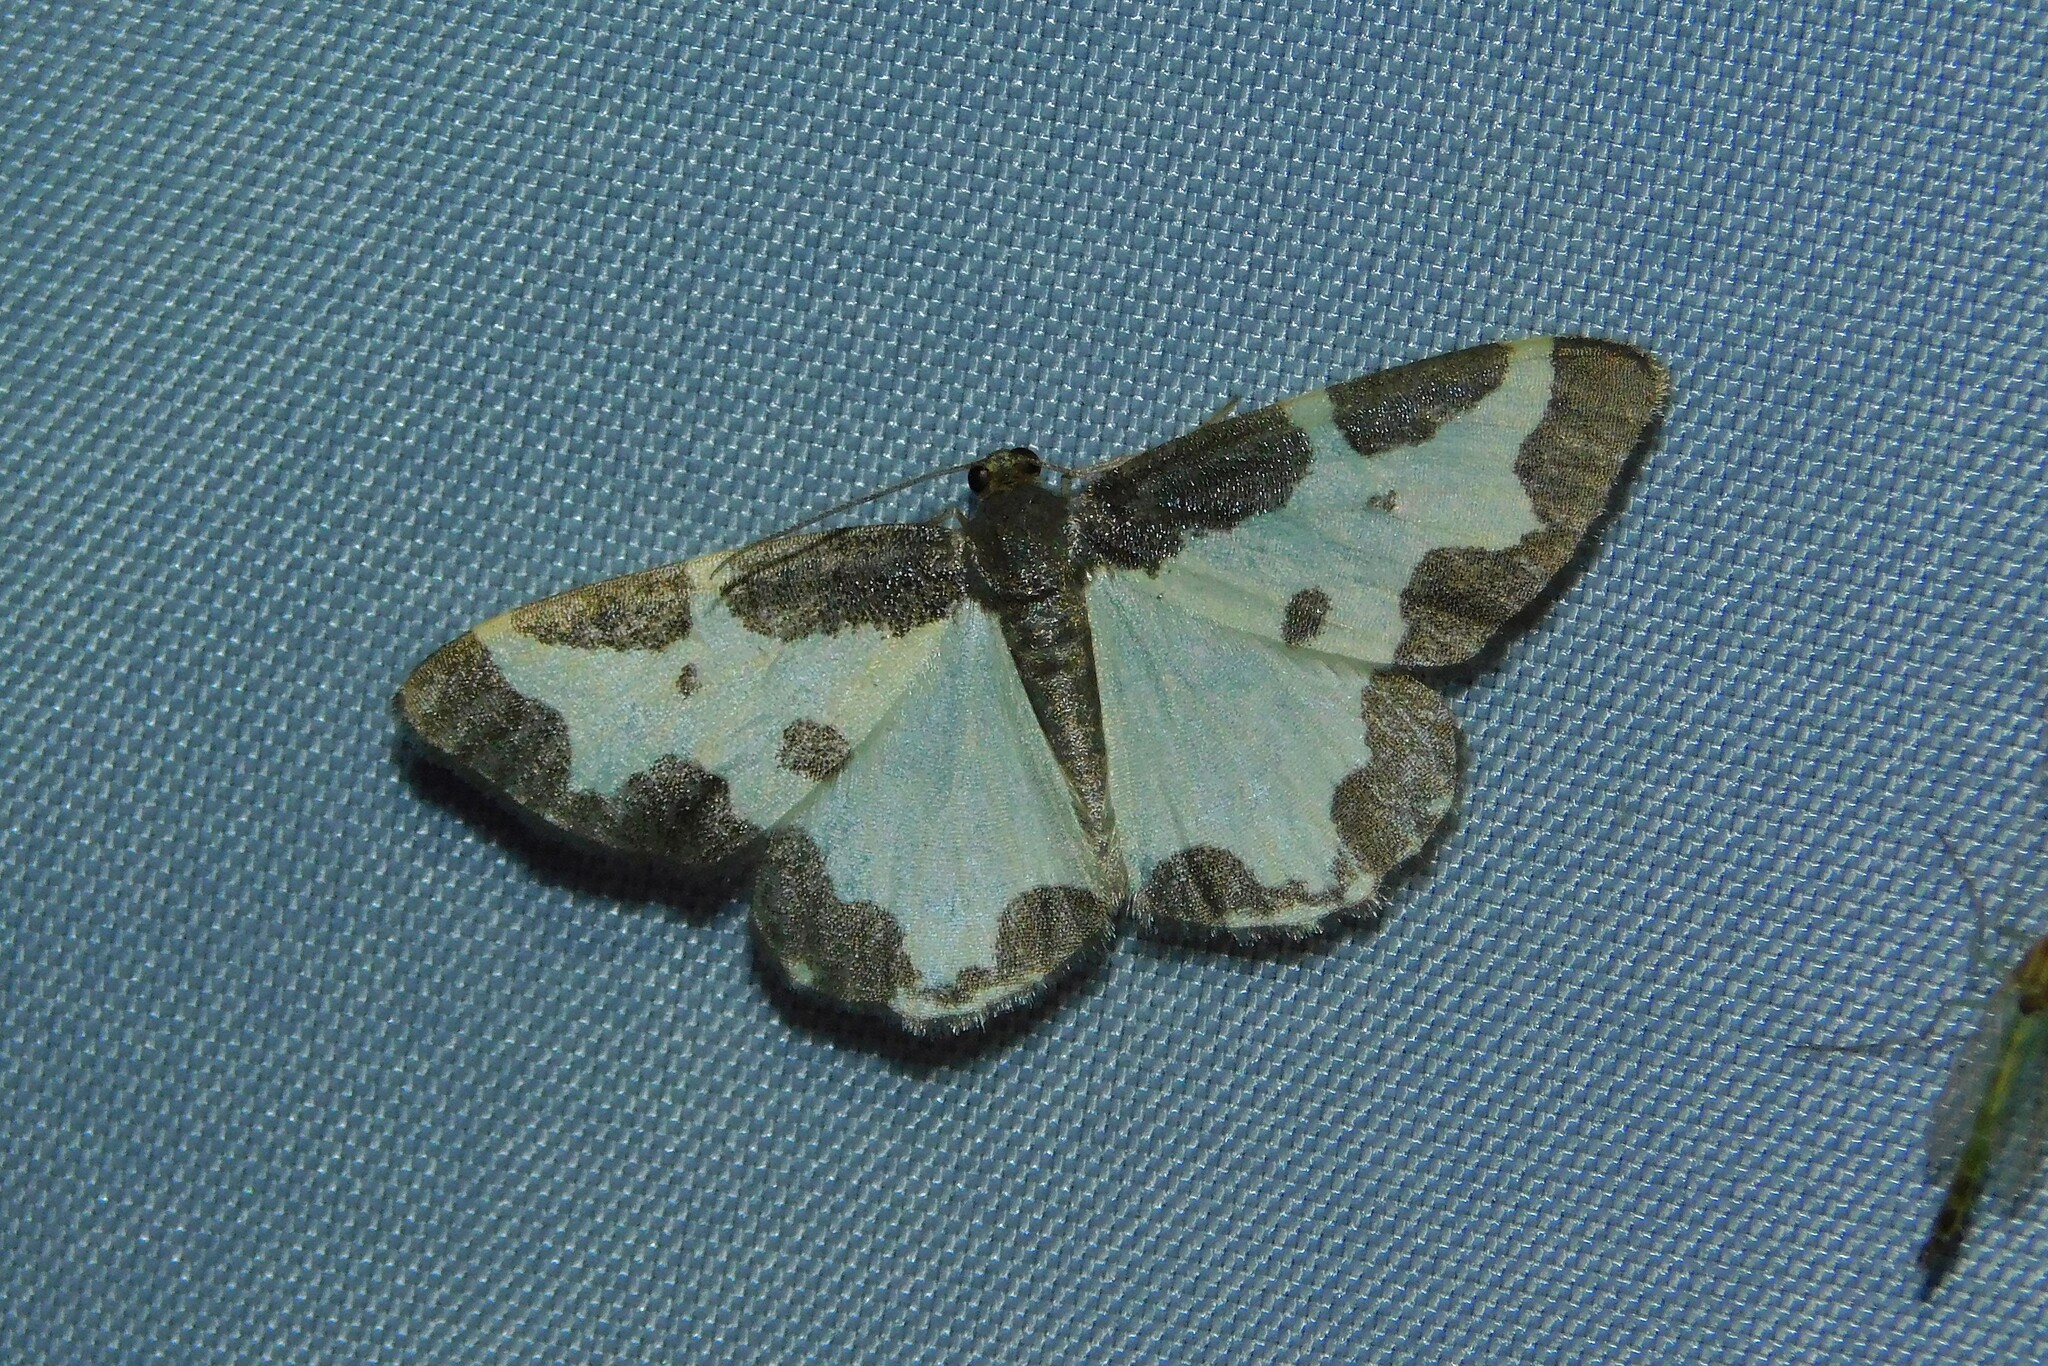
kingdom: Animalia
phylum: Arthropoda
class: Insecta
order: Lepidoptera
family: Geometridae
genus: Lomaspilis
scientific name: Lomaspilis marginata
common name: Clouded border
